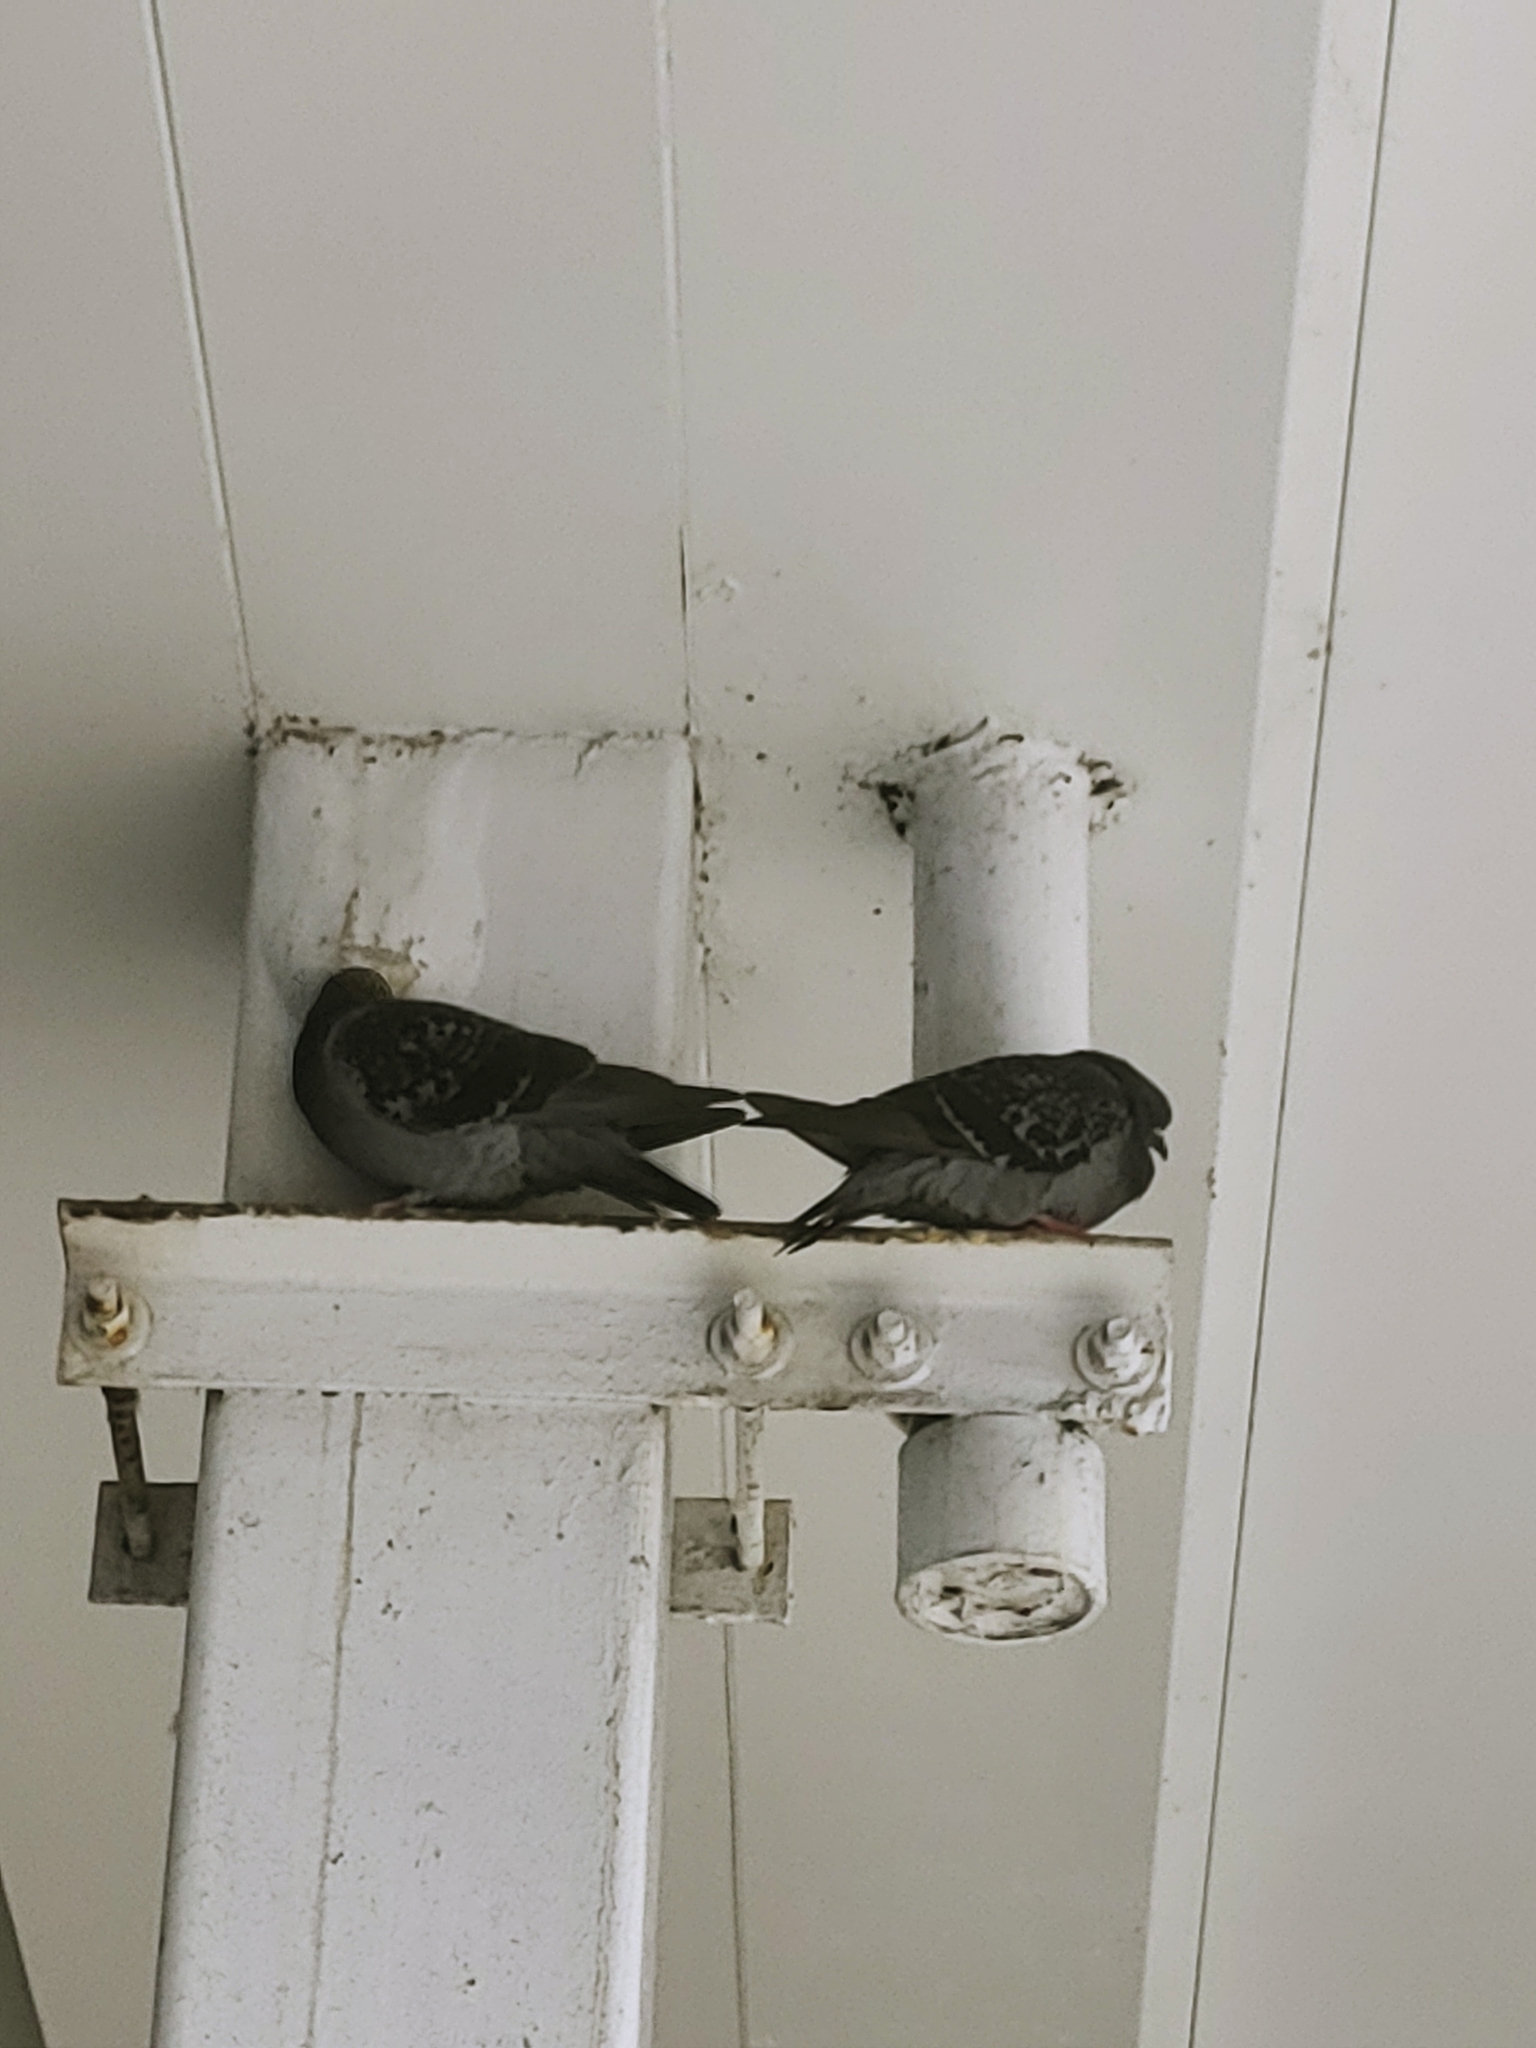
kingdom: Animalia
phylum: Chordata
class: Aves
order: Columbiformes
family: Columbidae
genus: Columba
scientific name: Columba livia
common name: Rock pigeon
